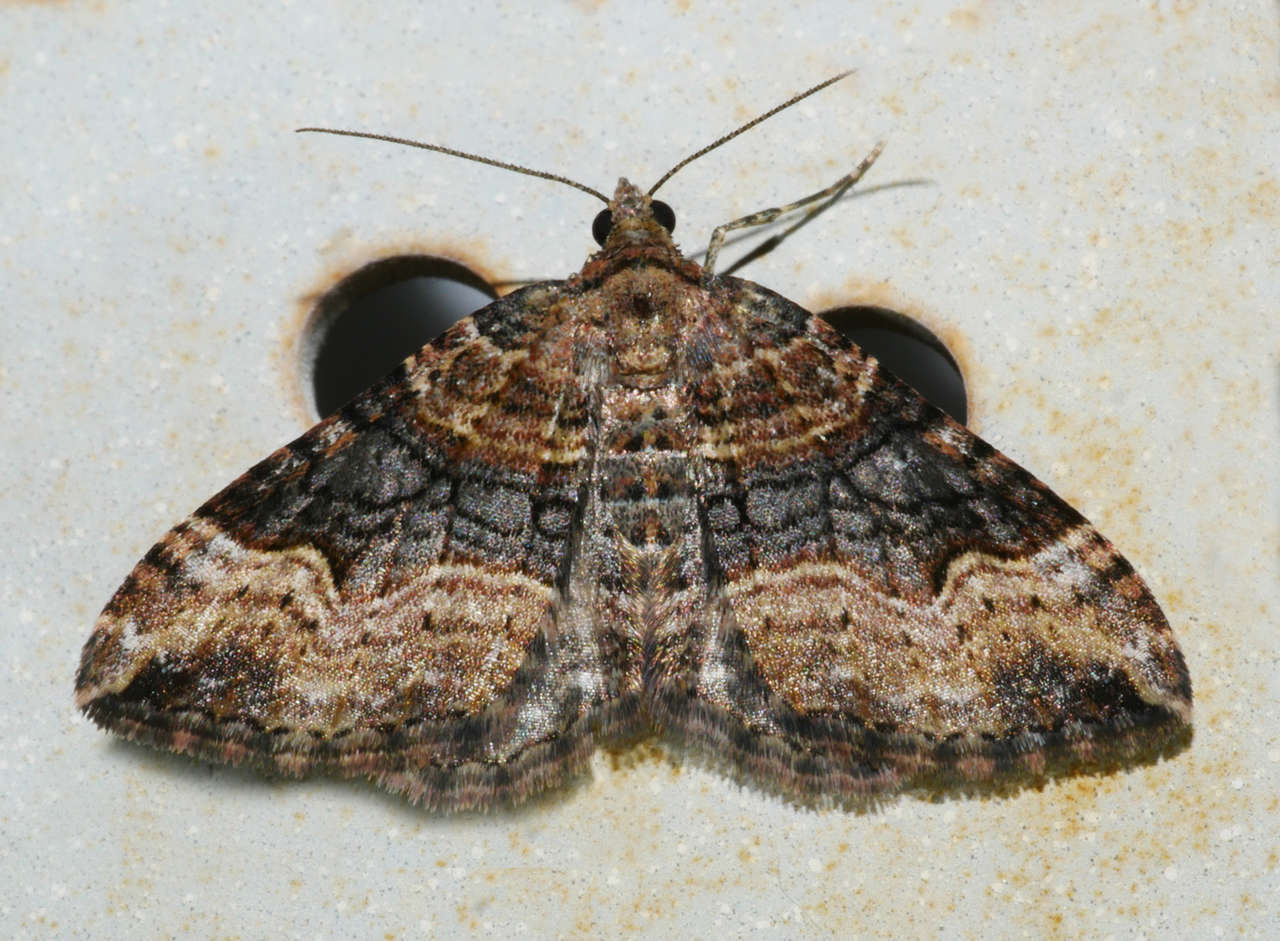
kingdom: Animalia
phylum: Arthropoda
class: Insecta
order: Lepidoptera
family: Geometridae
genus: Epyaxa
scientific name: Epyaxa subidaria
